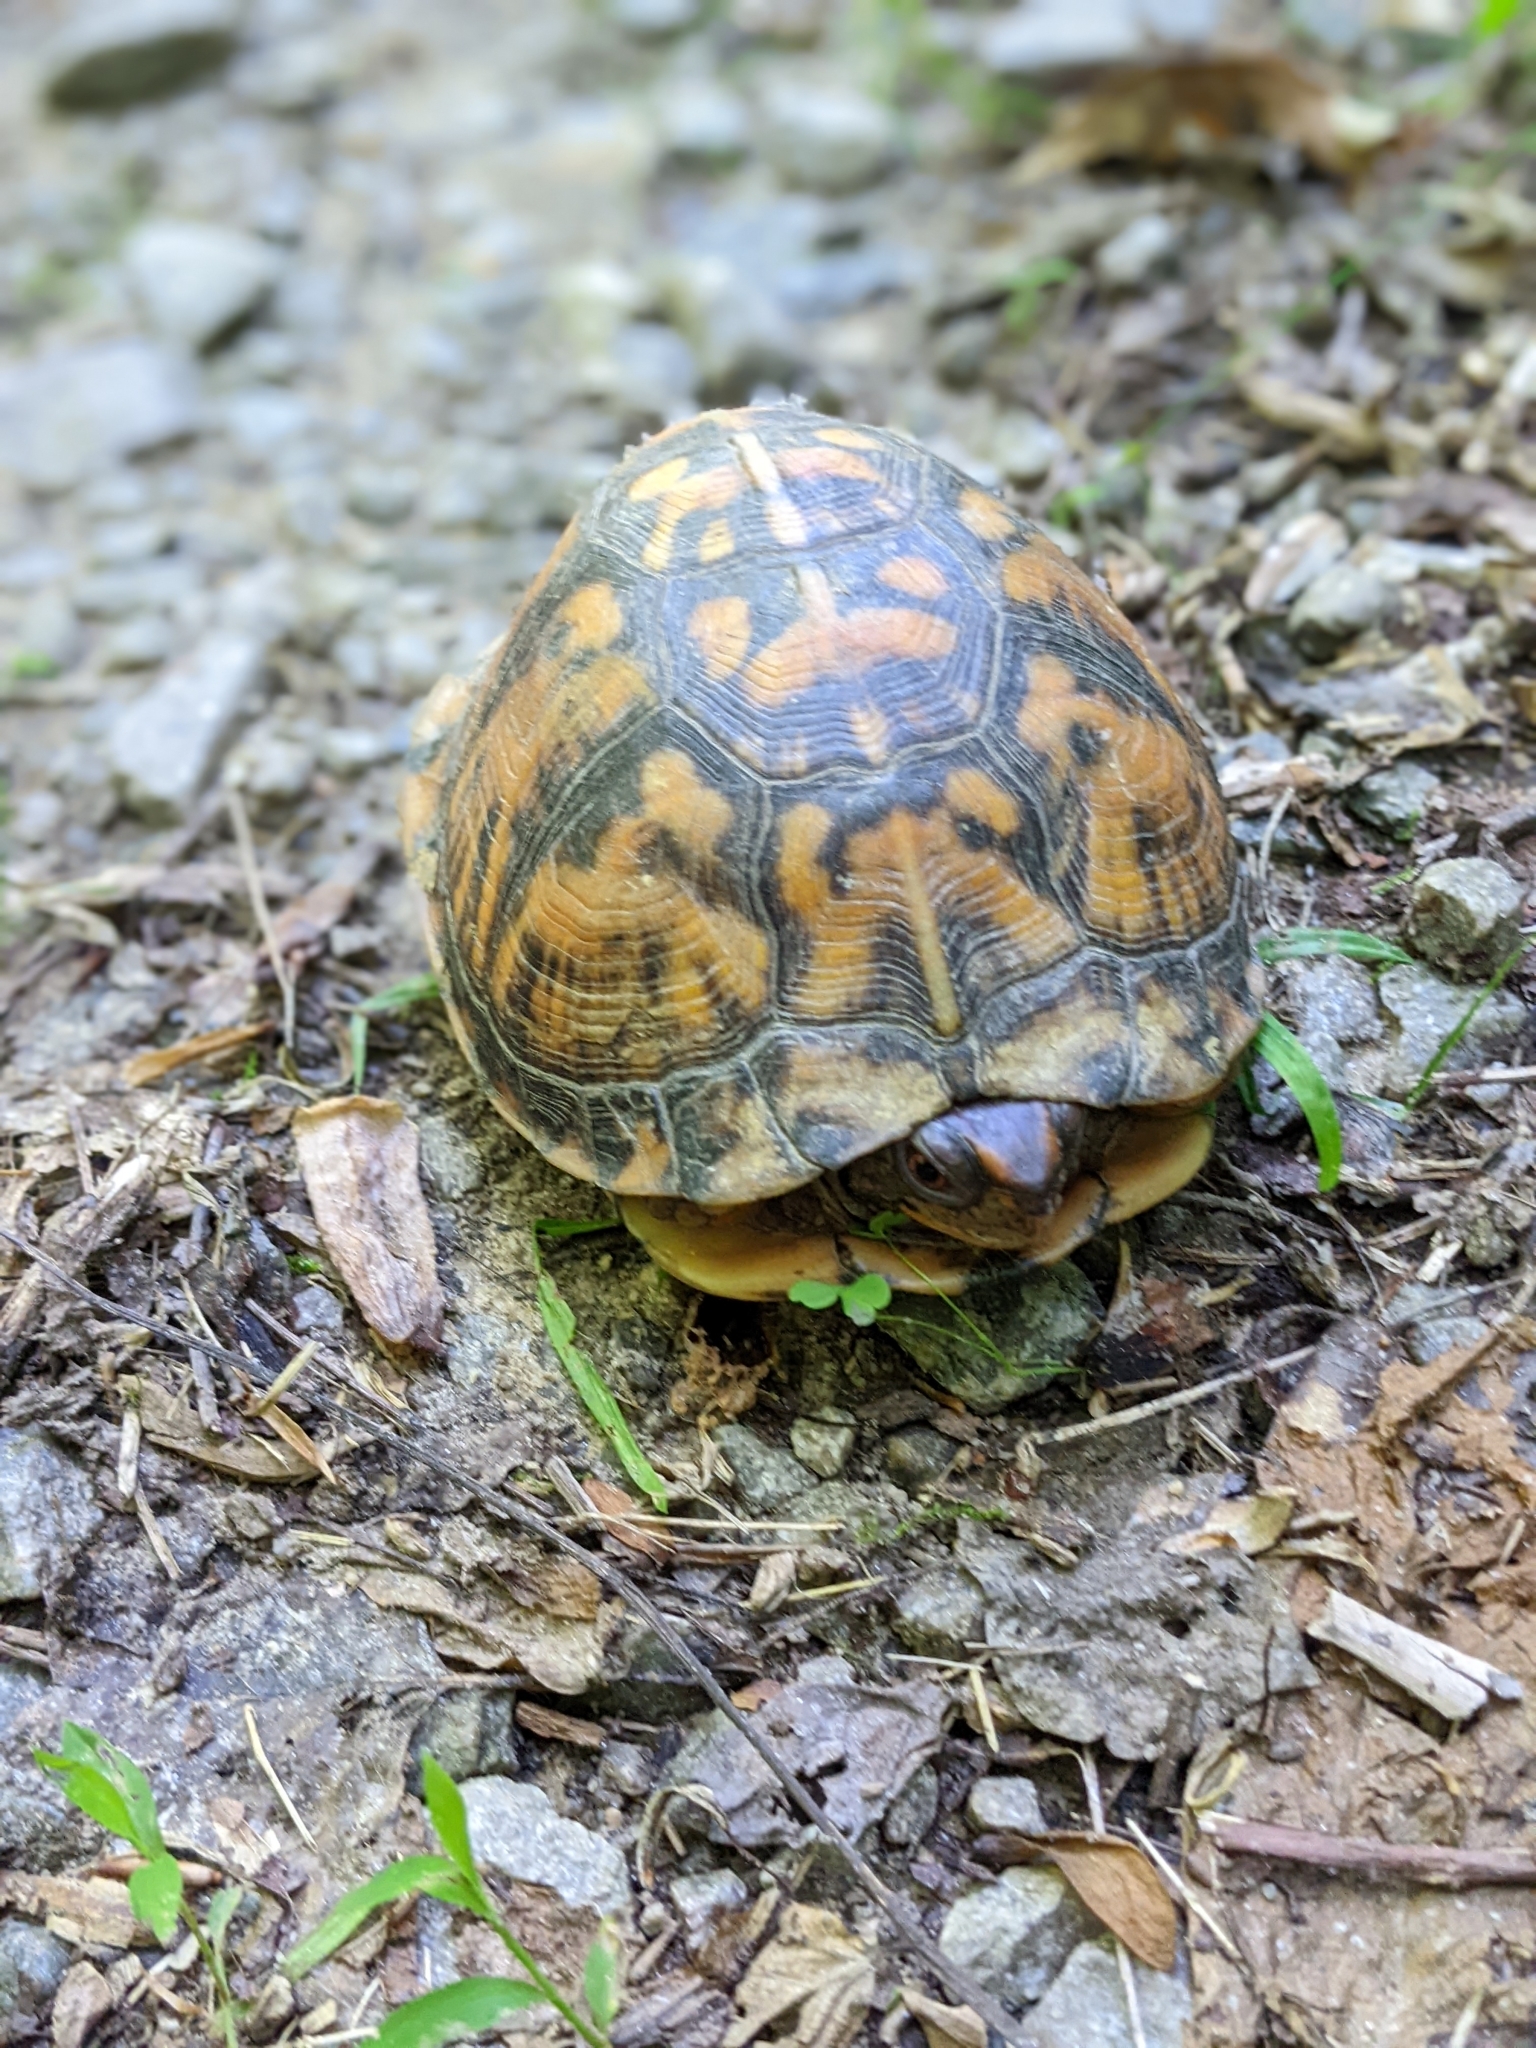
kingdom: Animalia
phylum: Chordata
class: Testudines
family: Emydidae
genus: Terrapene
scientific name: Terrapene carolina
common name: Common box turtle
